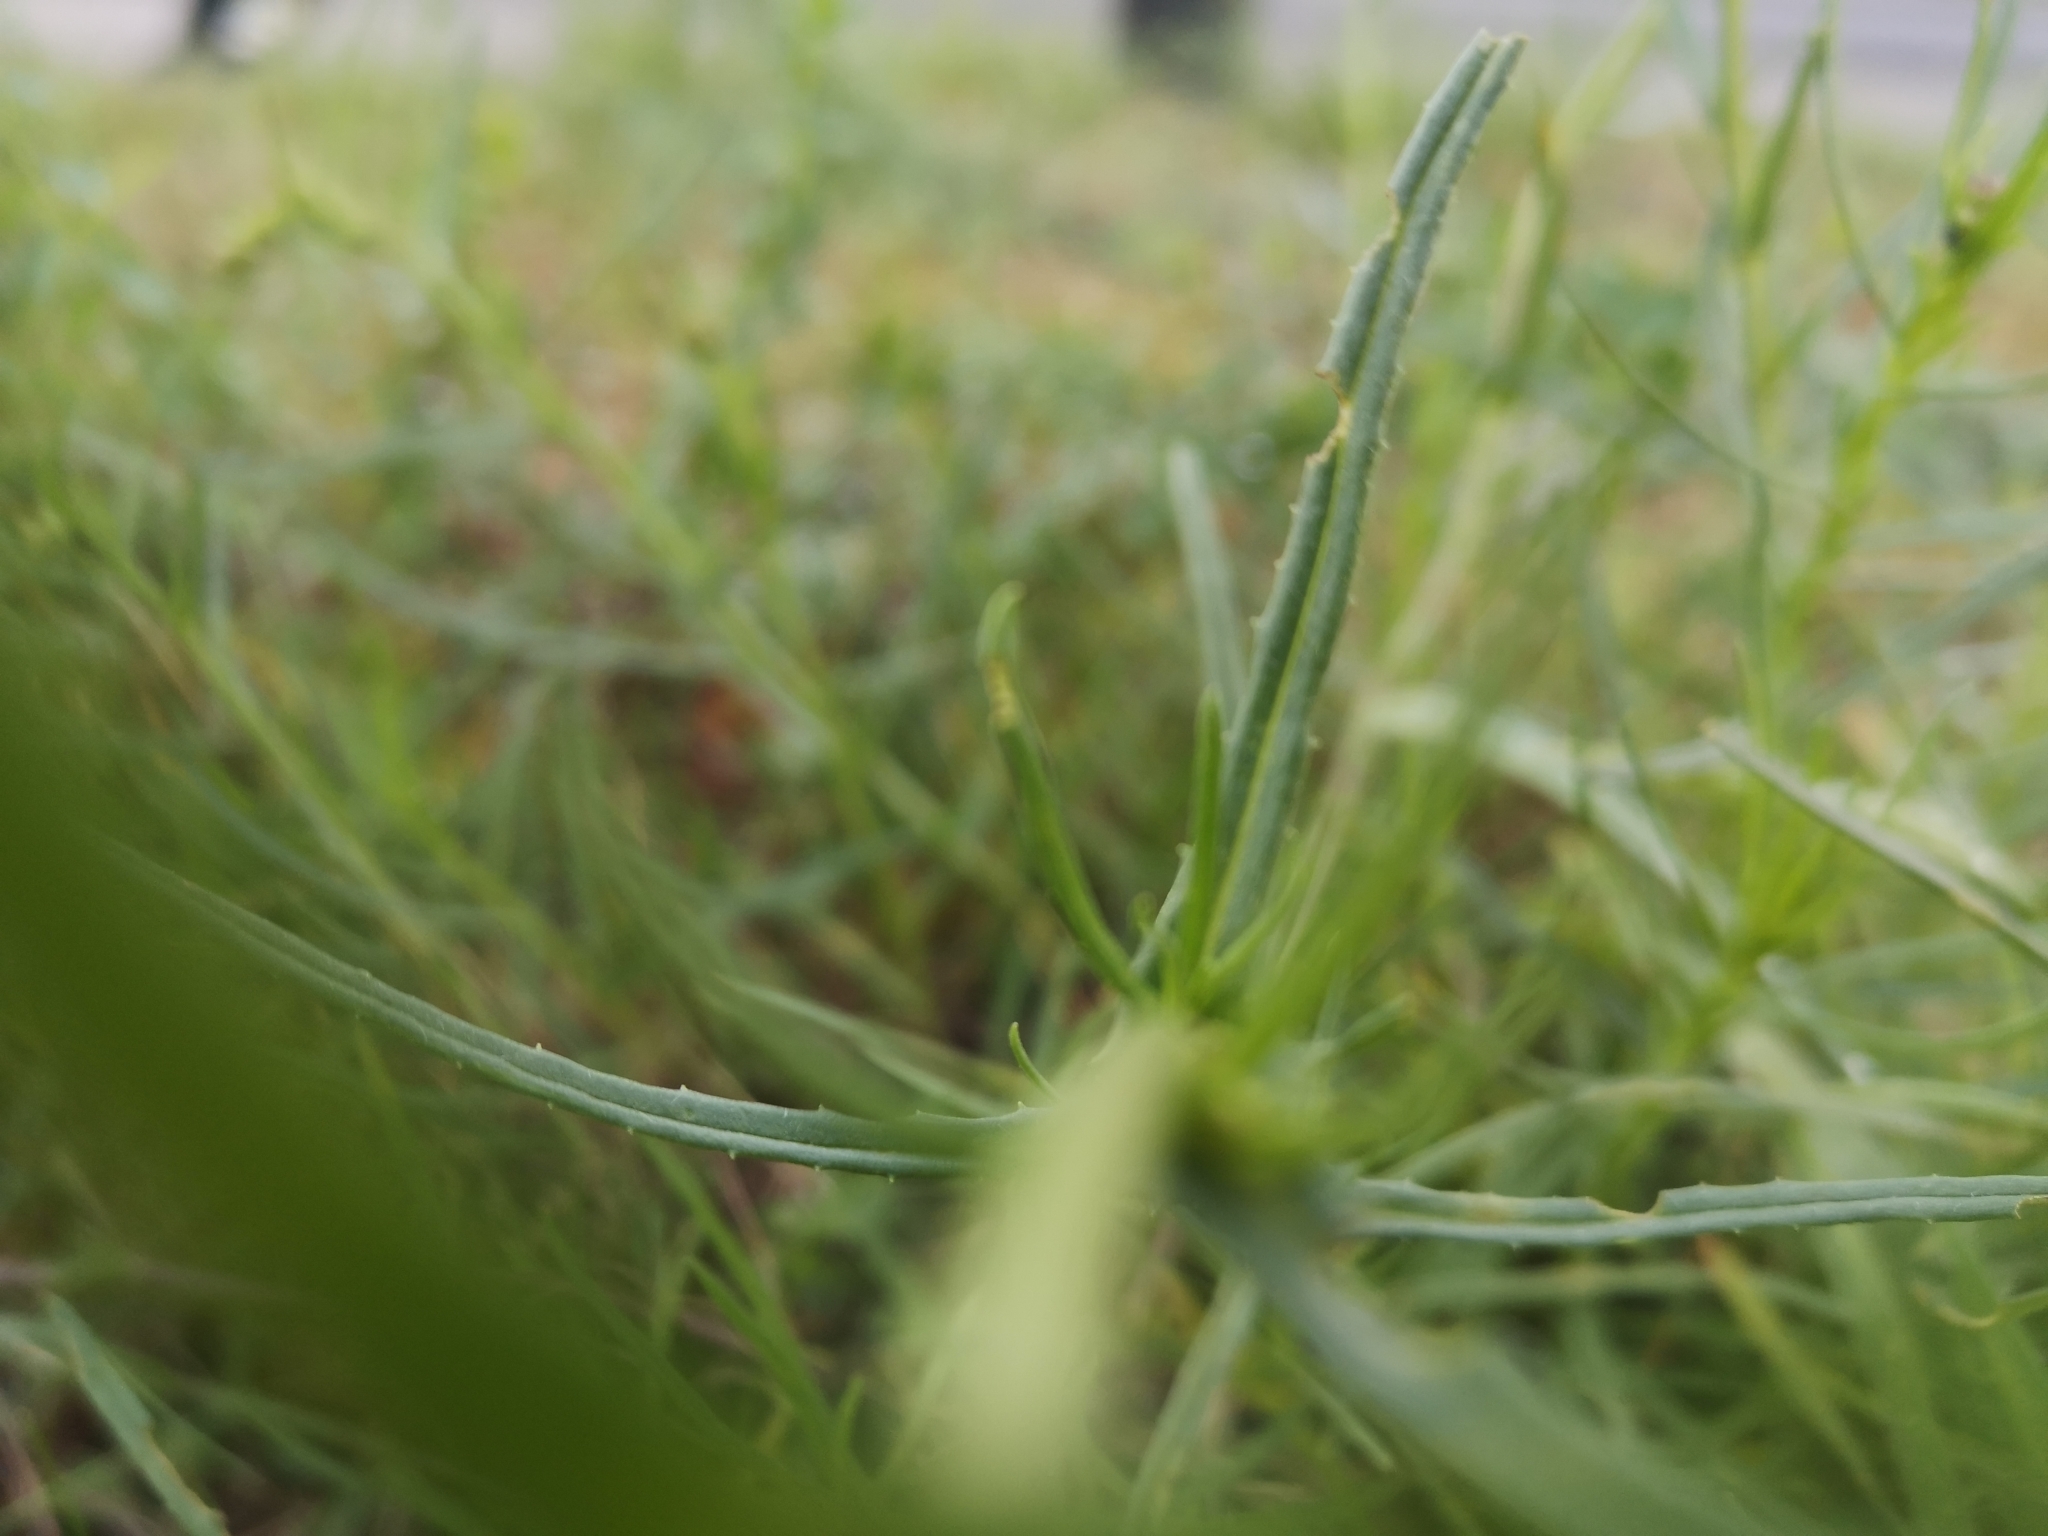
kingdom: Plantae
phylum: Tracheophyta
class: Magnoliopsida
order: Asterales
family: Asteraceae
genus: Senecio
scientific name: Senecio inaequidens
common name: Narrow-leaved ragwort
